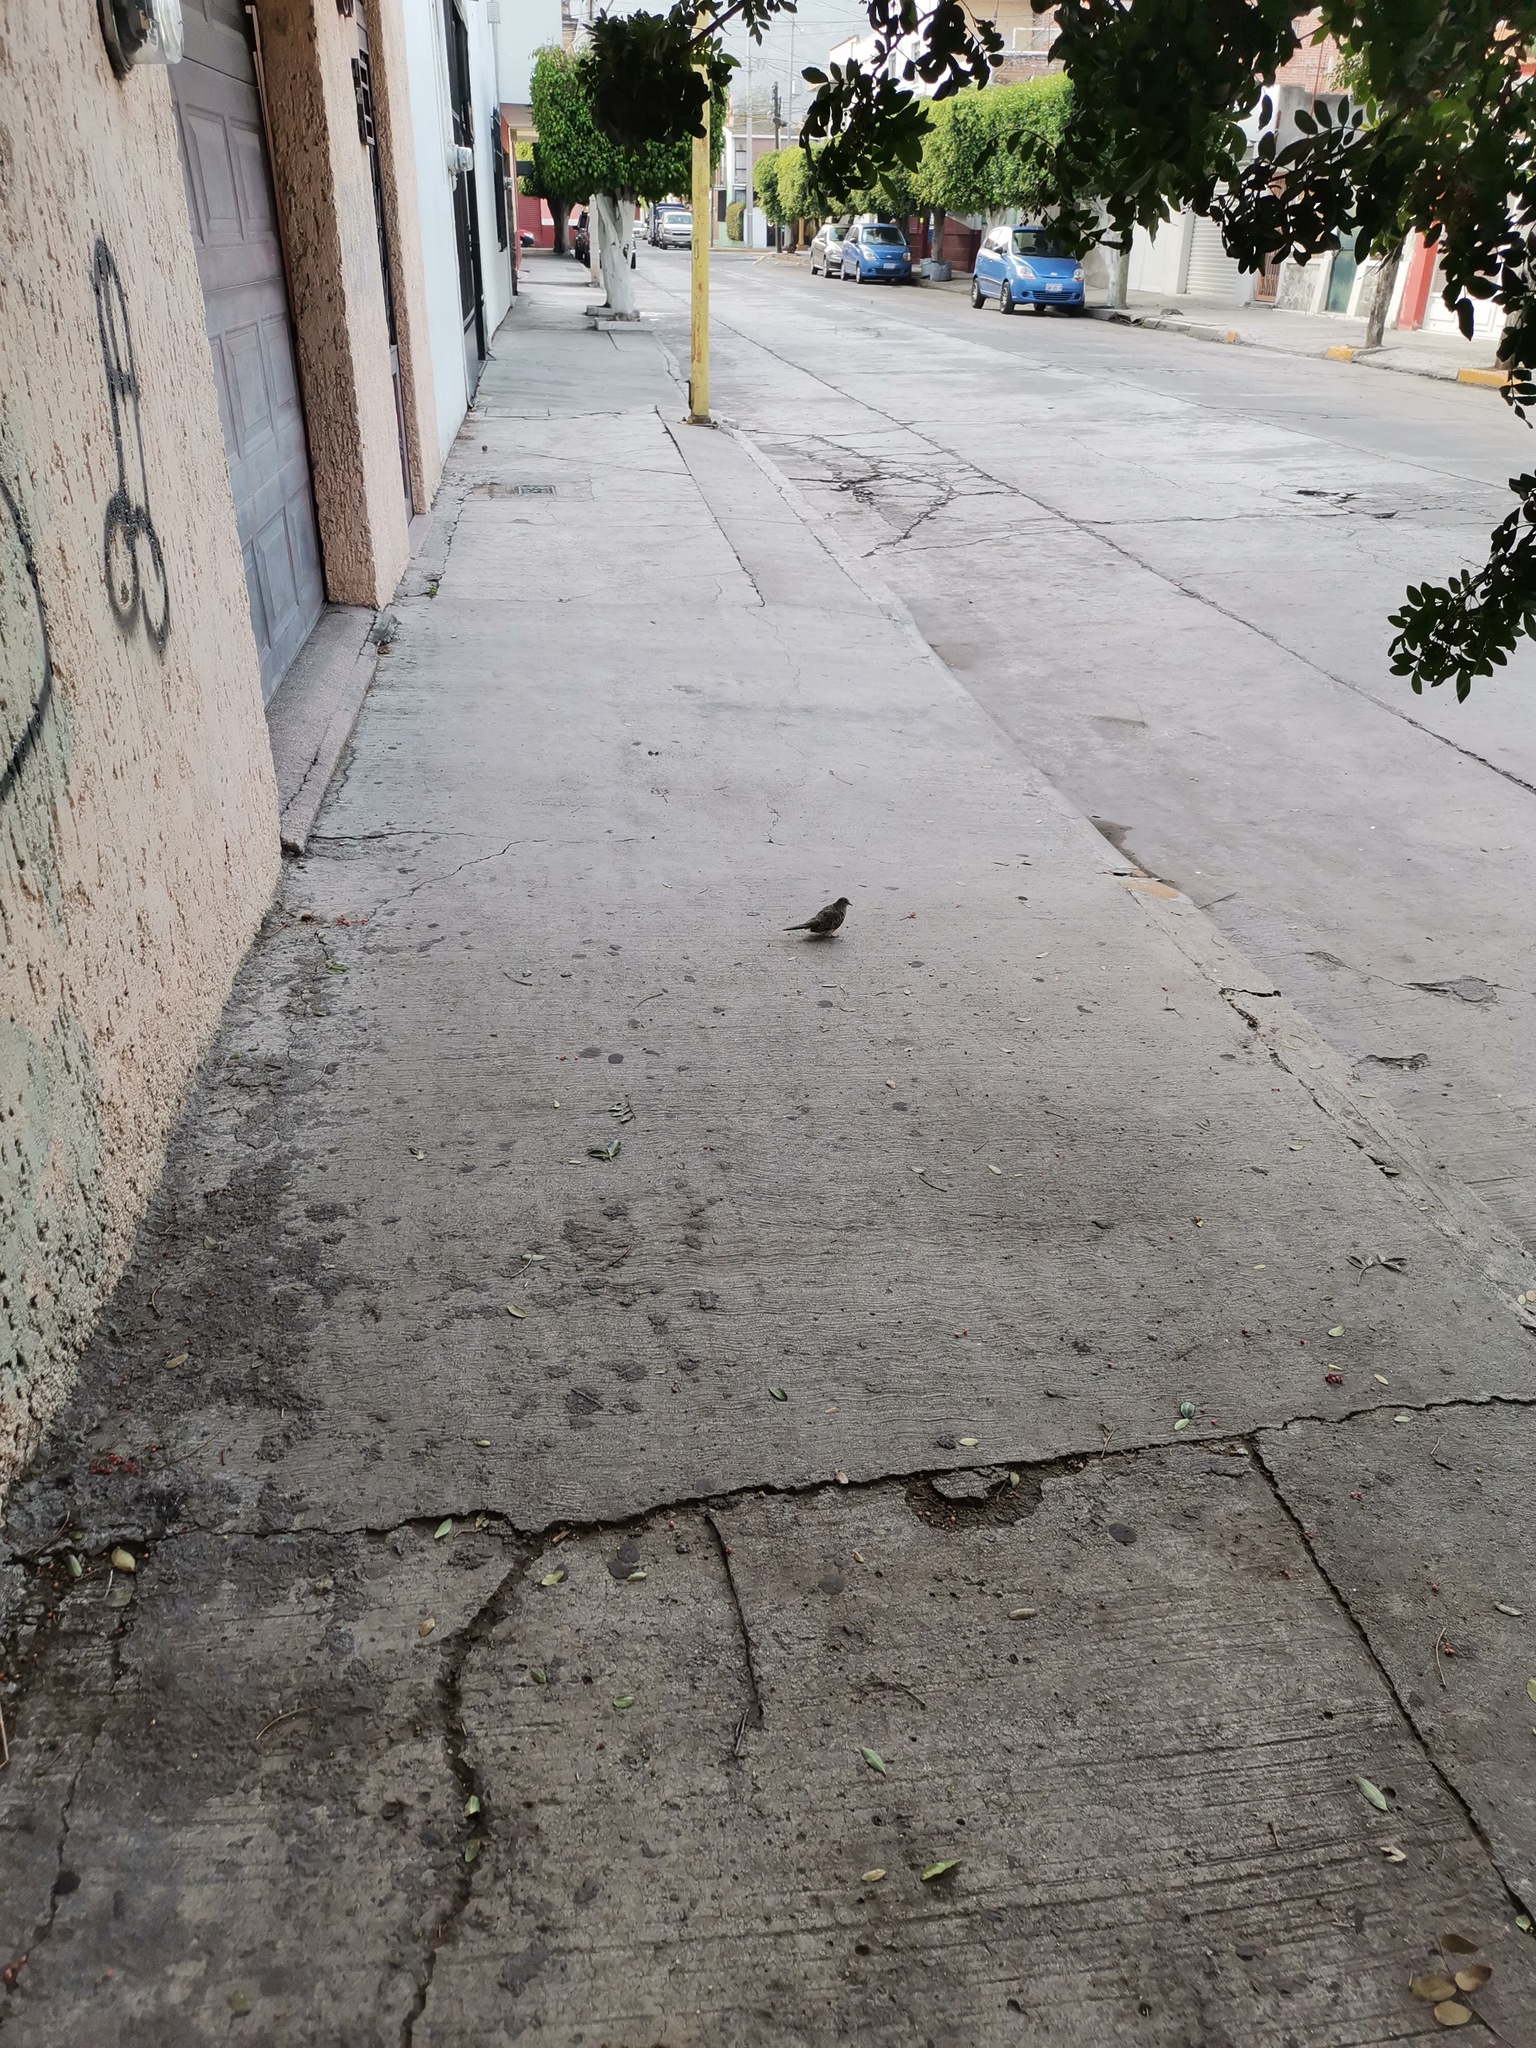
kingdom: Animalia
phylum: Chordata
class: Aves
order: Columbiformes
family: Columbidae
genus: Columbina
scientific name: Columbina inca
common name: Inca dove
